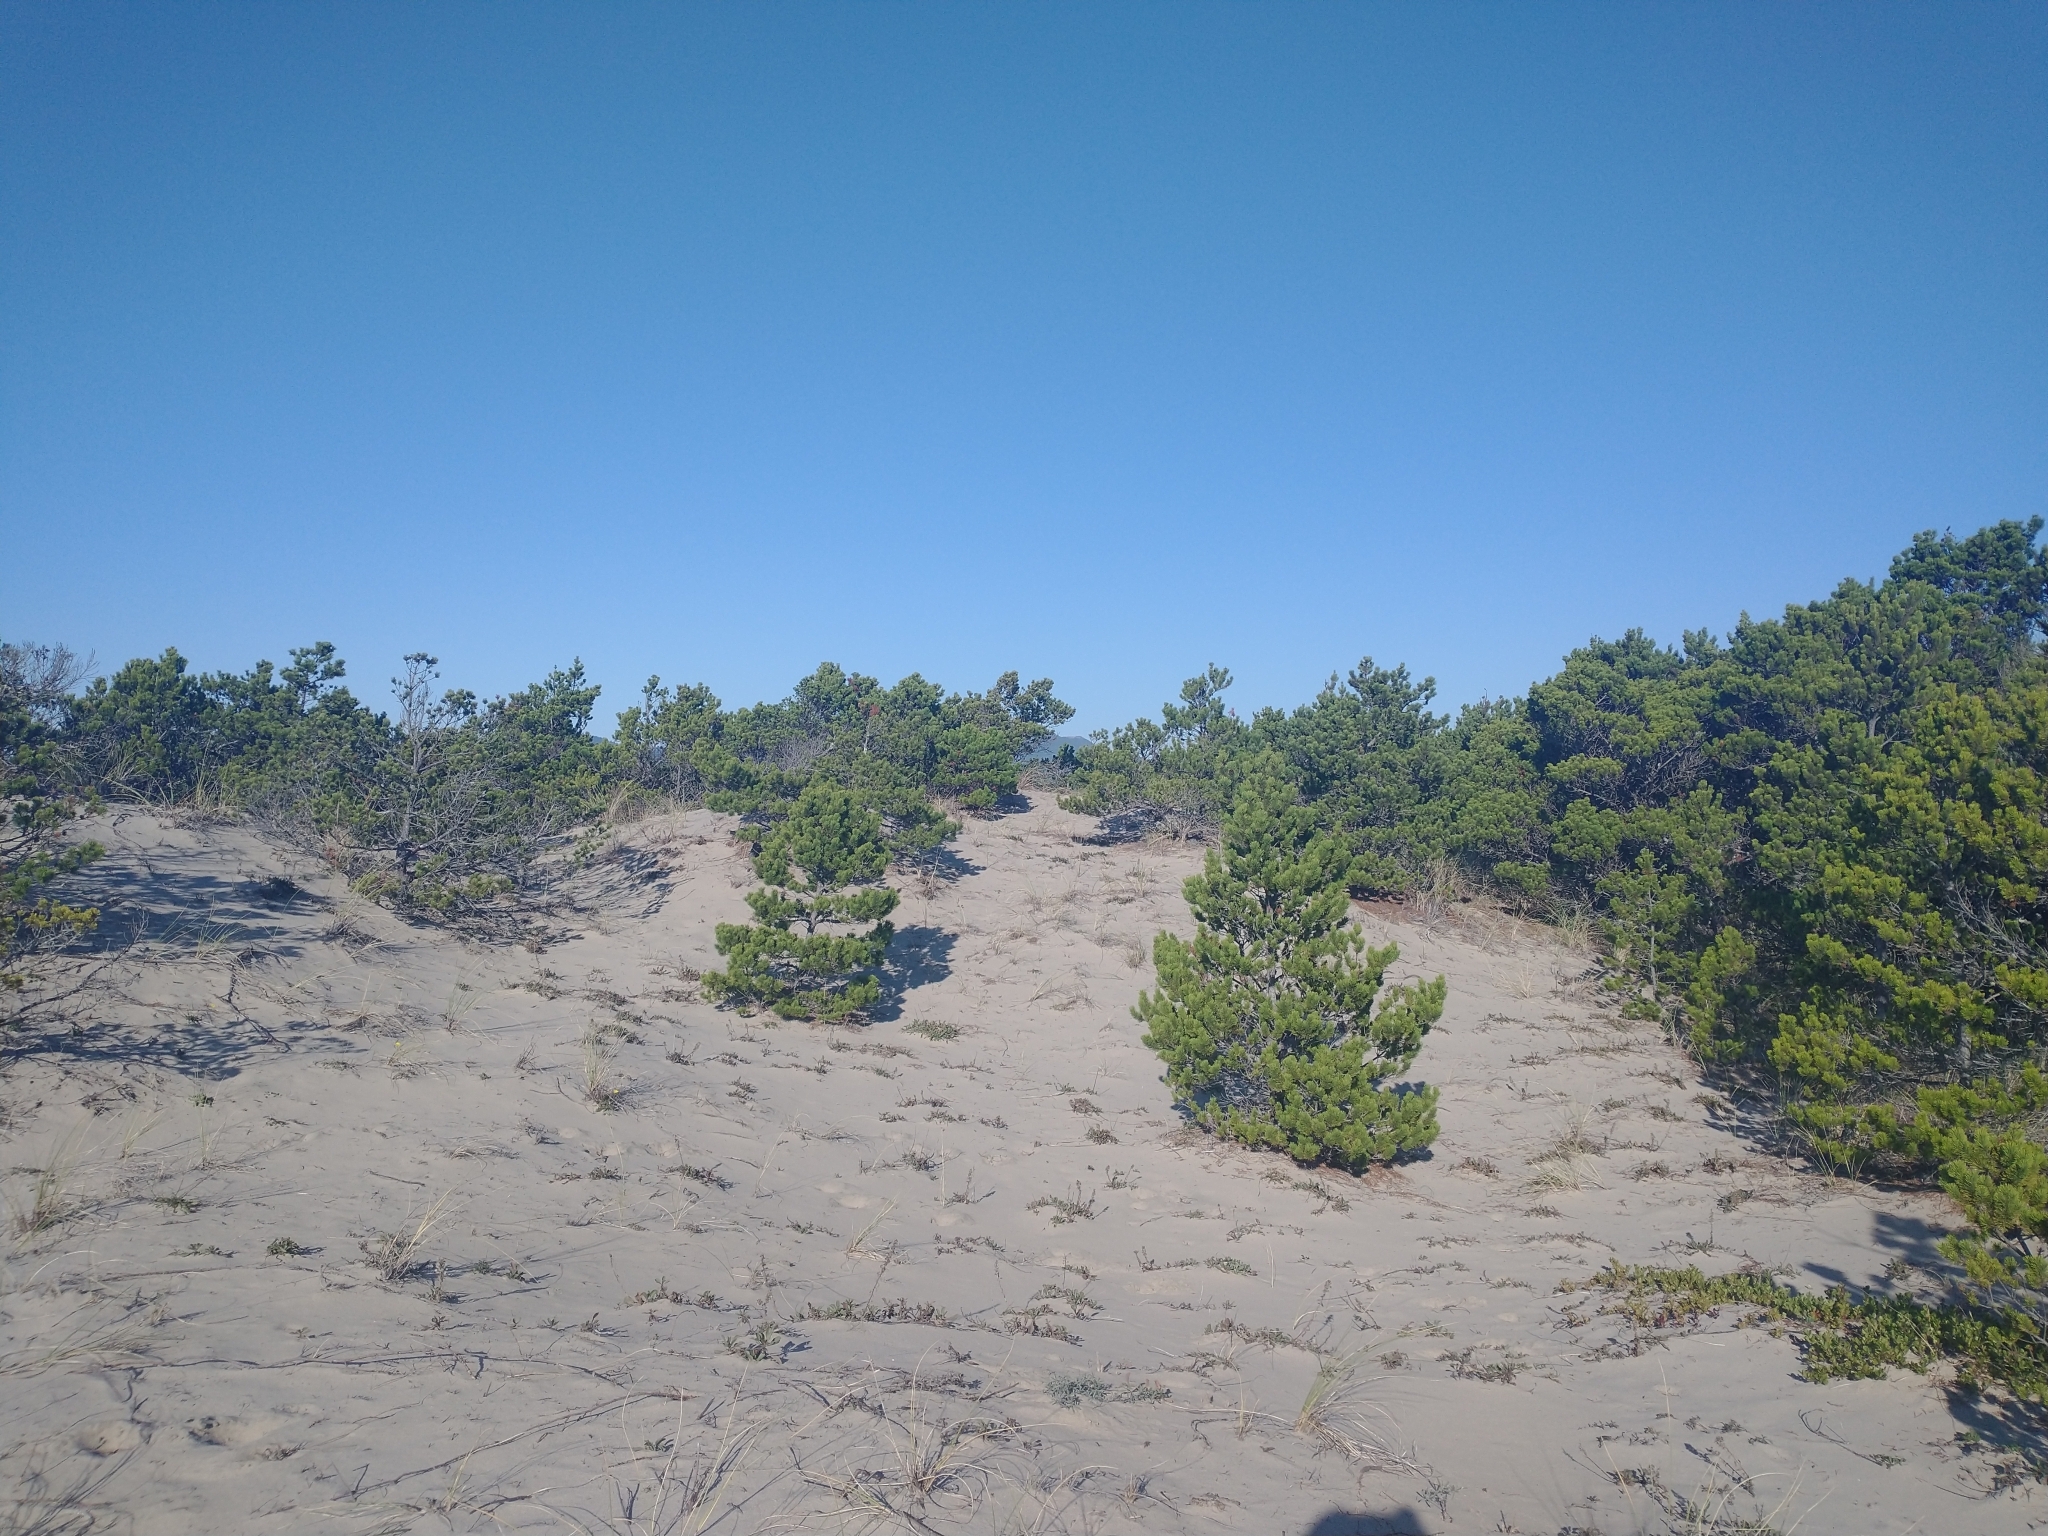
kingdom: Plantae
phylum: Tracheophyta
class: Pinopsida
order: Pinales
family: Pinaceae
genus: Pinus
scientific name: Pinus contorta
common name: Lodgepole pine
